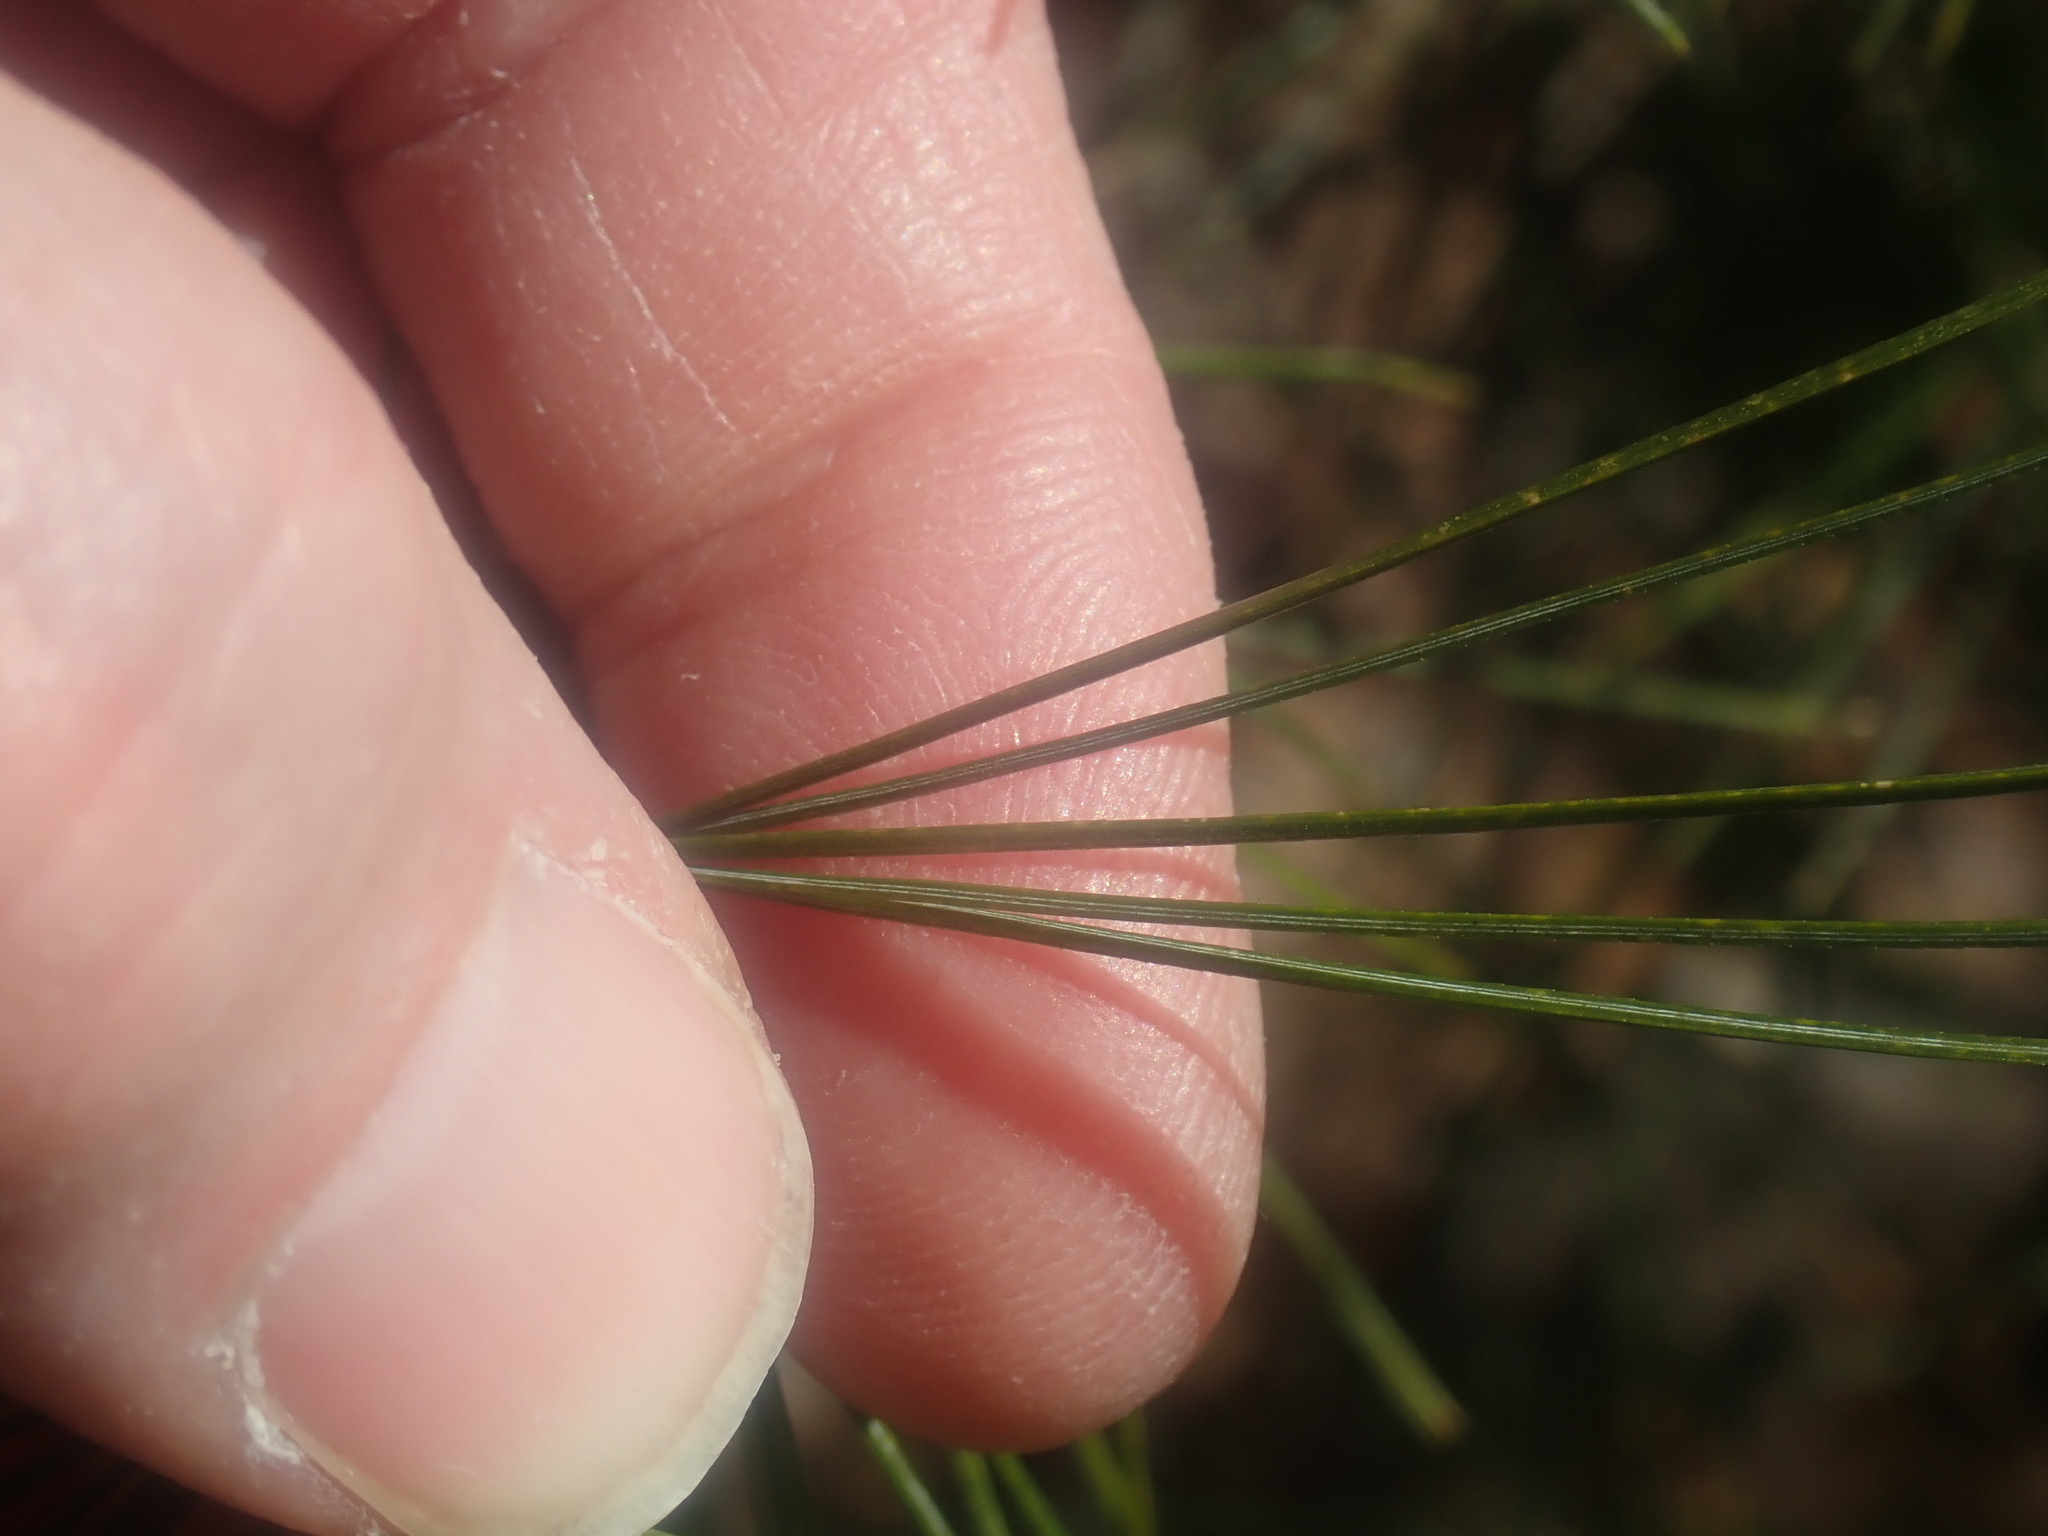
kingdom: Plantae
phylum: Tracheophyta
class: Pinopsida
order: Pinales
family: Pinaceae
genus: Pinus
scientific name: Pinus strobus
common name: Weymouth pine
